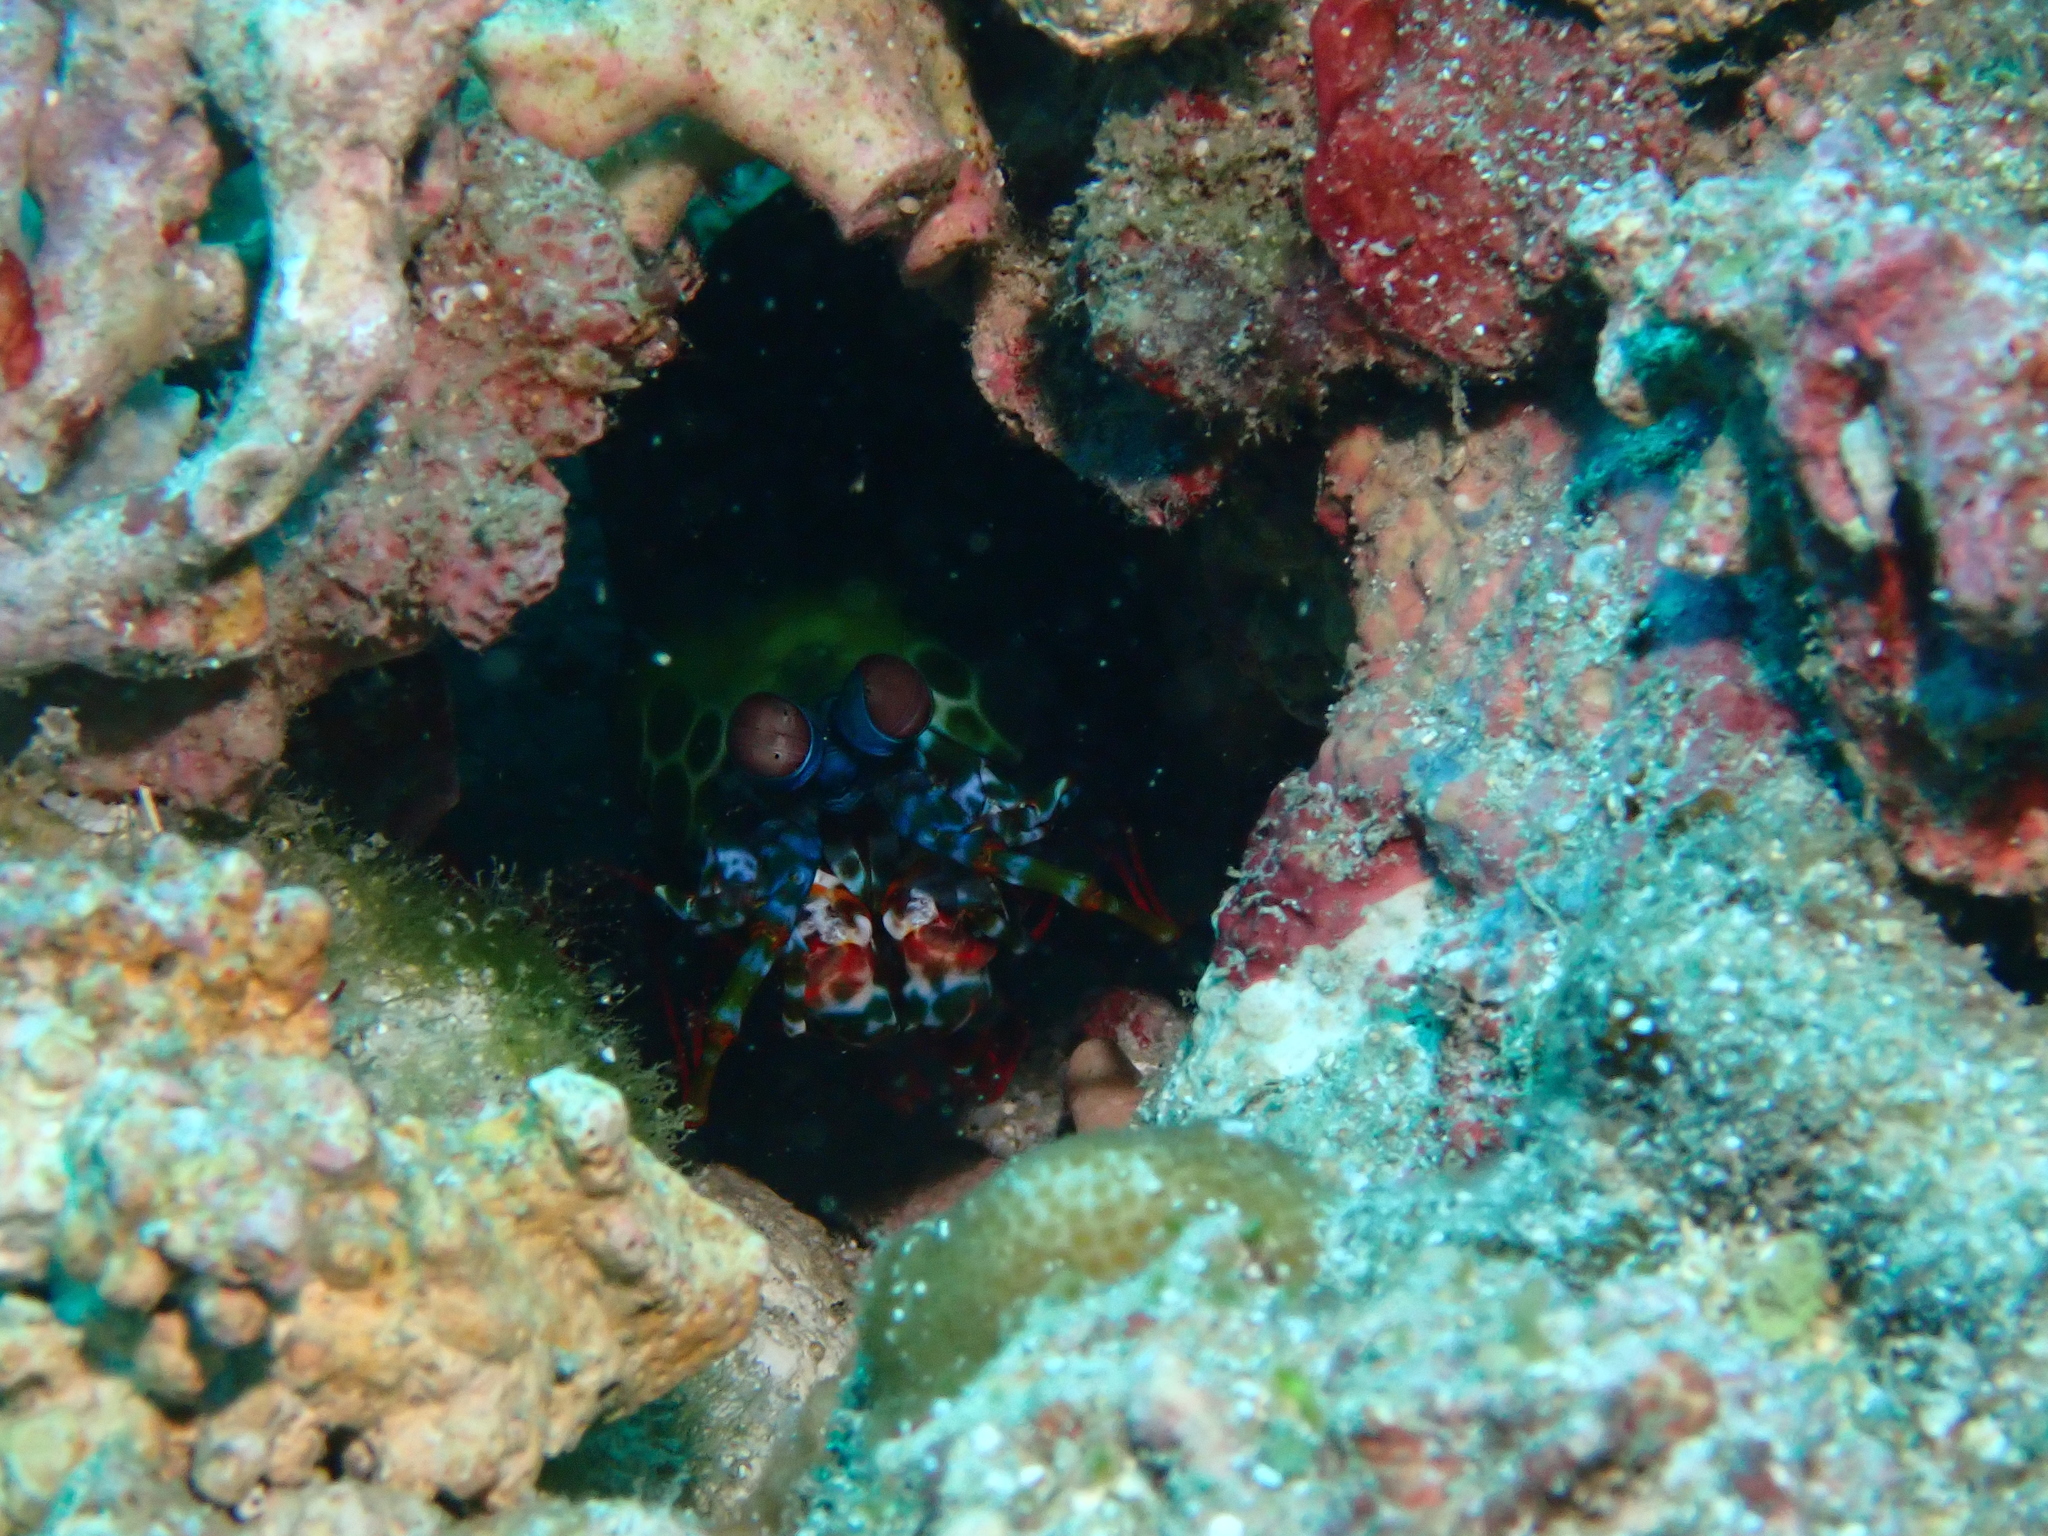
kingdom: Animalia
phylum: Arthropoda
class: Malacostraca
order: Stomatopoda
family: Odontodactylidae
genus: Odontodactylus
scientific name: Odontodactylus scyllarus
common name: Peacock mantis shrimp
